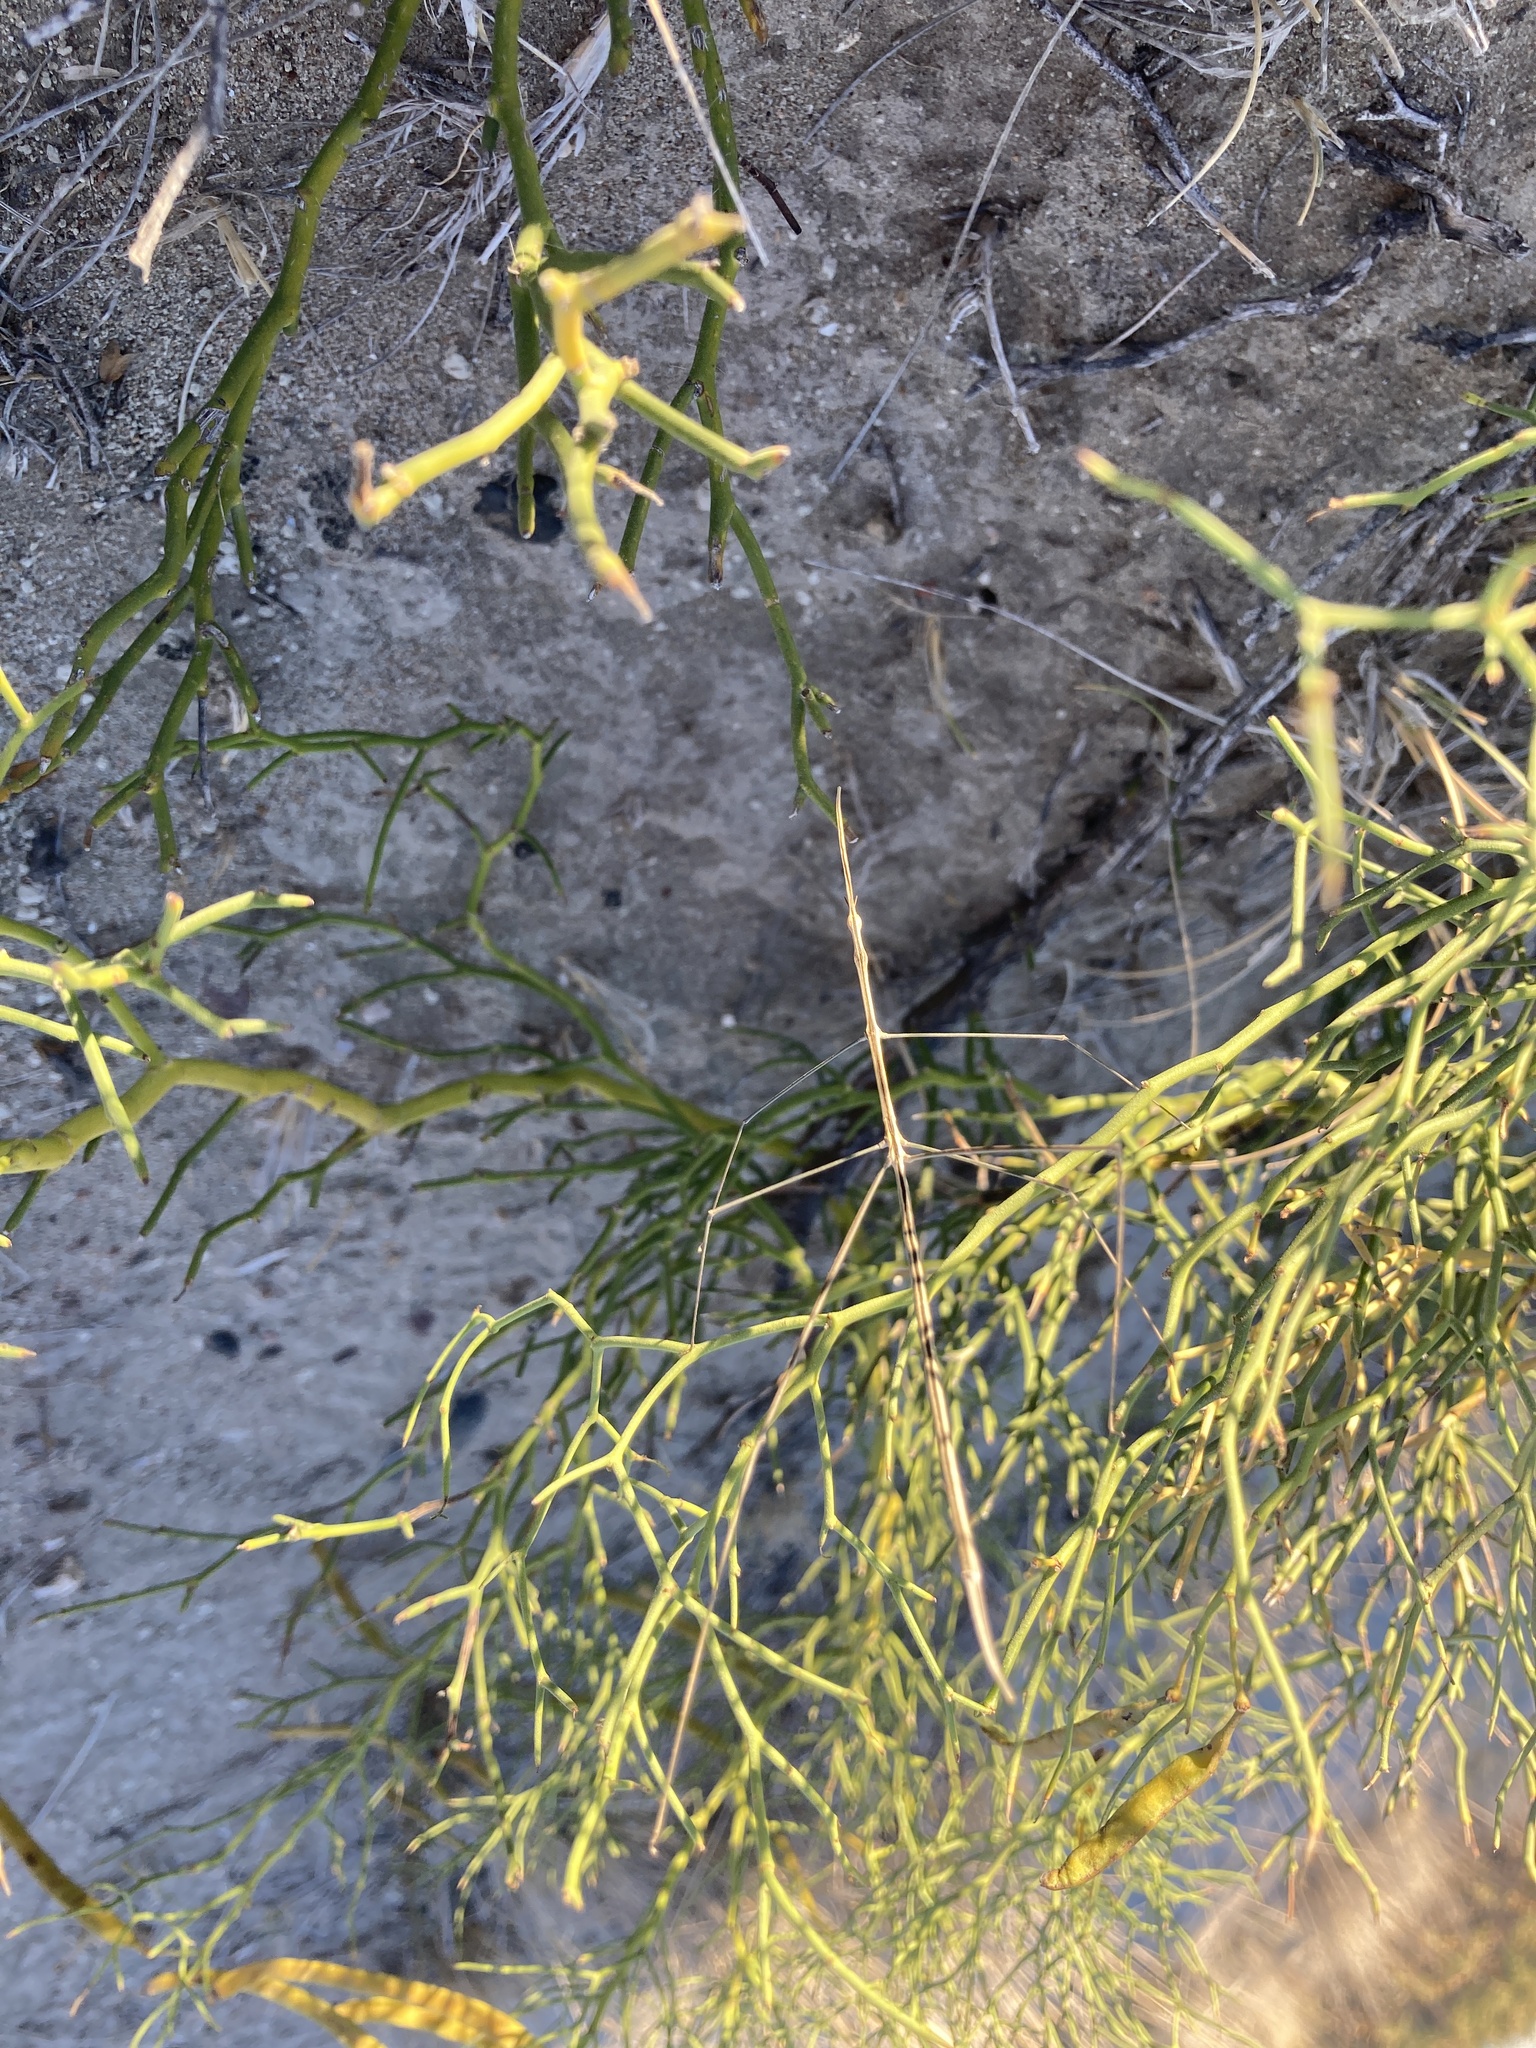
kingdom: Animalia
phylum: Arthropoda
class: Insecta
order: Orthoptera
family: Proscopiidae
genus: Carphoproscopia
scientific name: Carphoproscopia lancea
